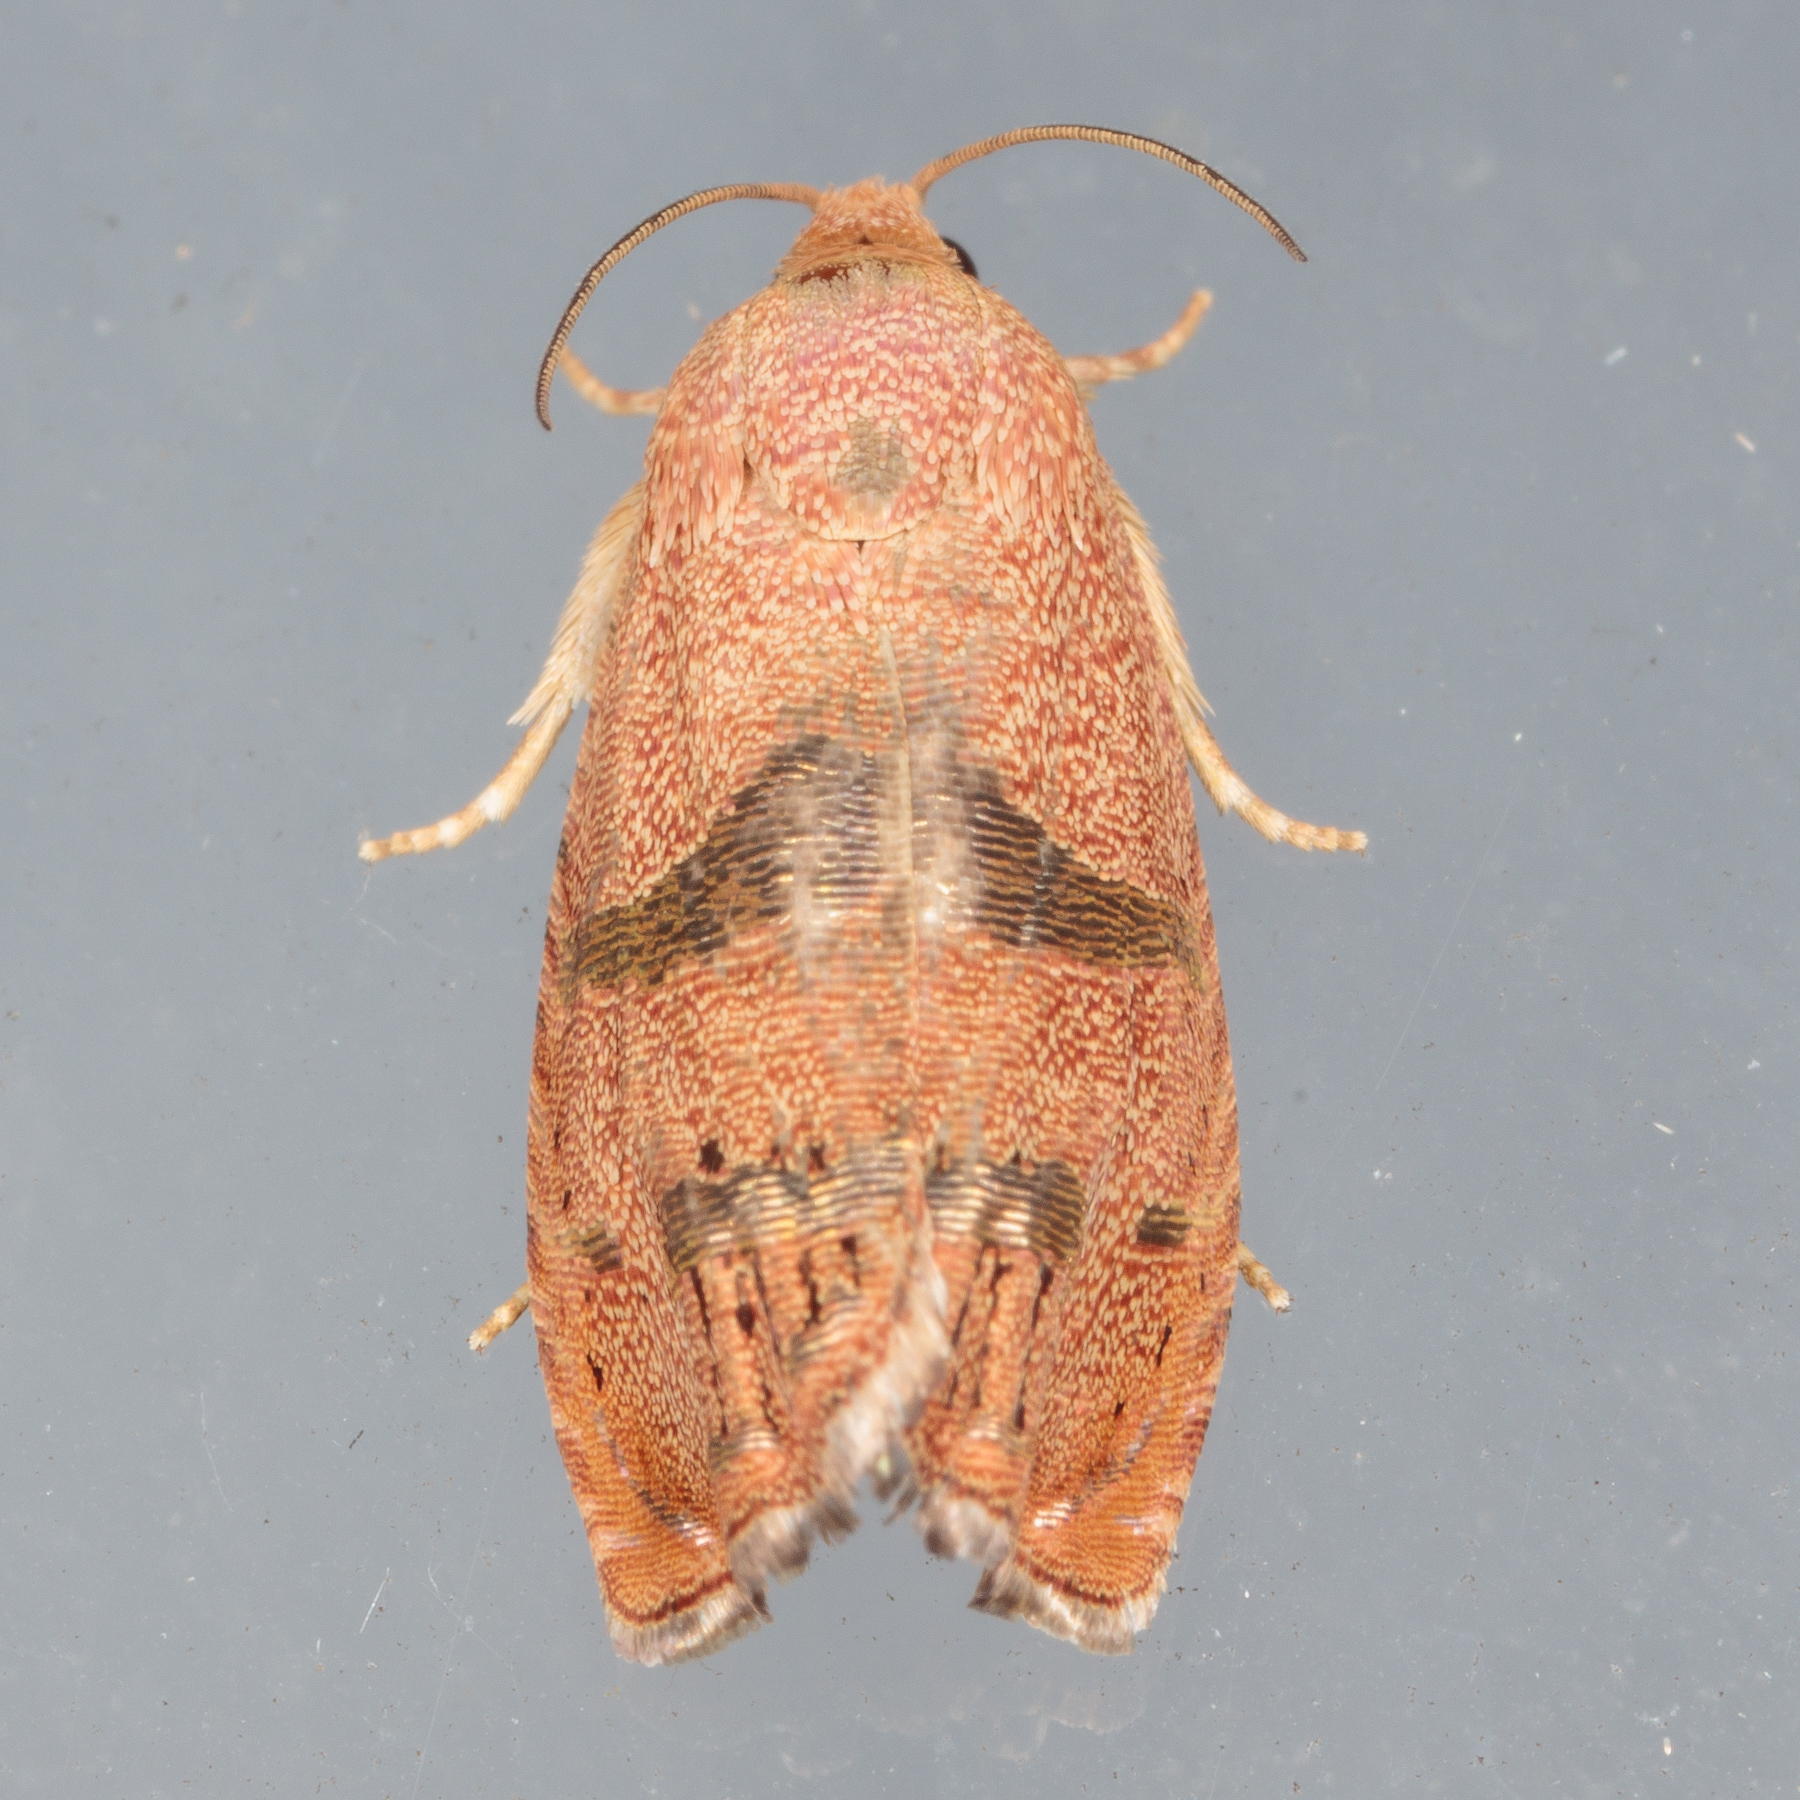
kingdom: Animalia
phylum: Arthropoda
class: Insecta
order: Lepidoptera
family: Tortricidae
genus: Cydia
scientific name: Cydia latiferreana
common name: Filbertworm moth
